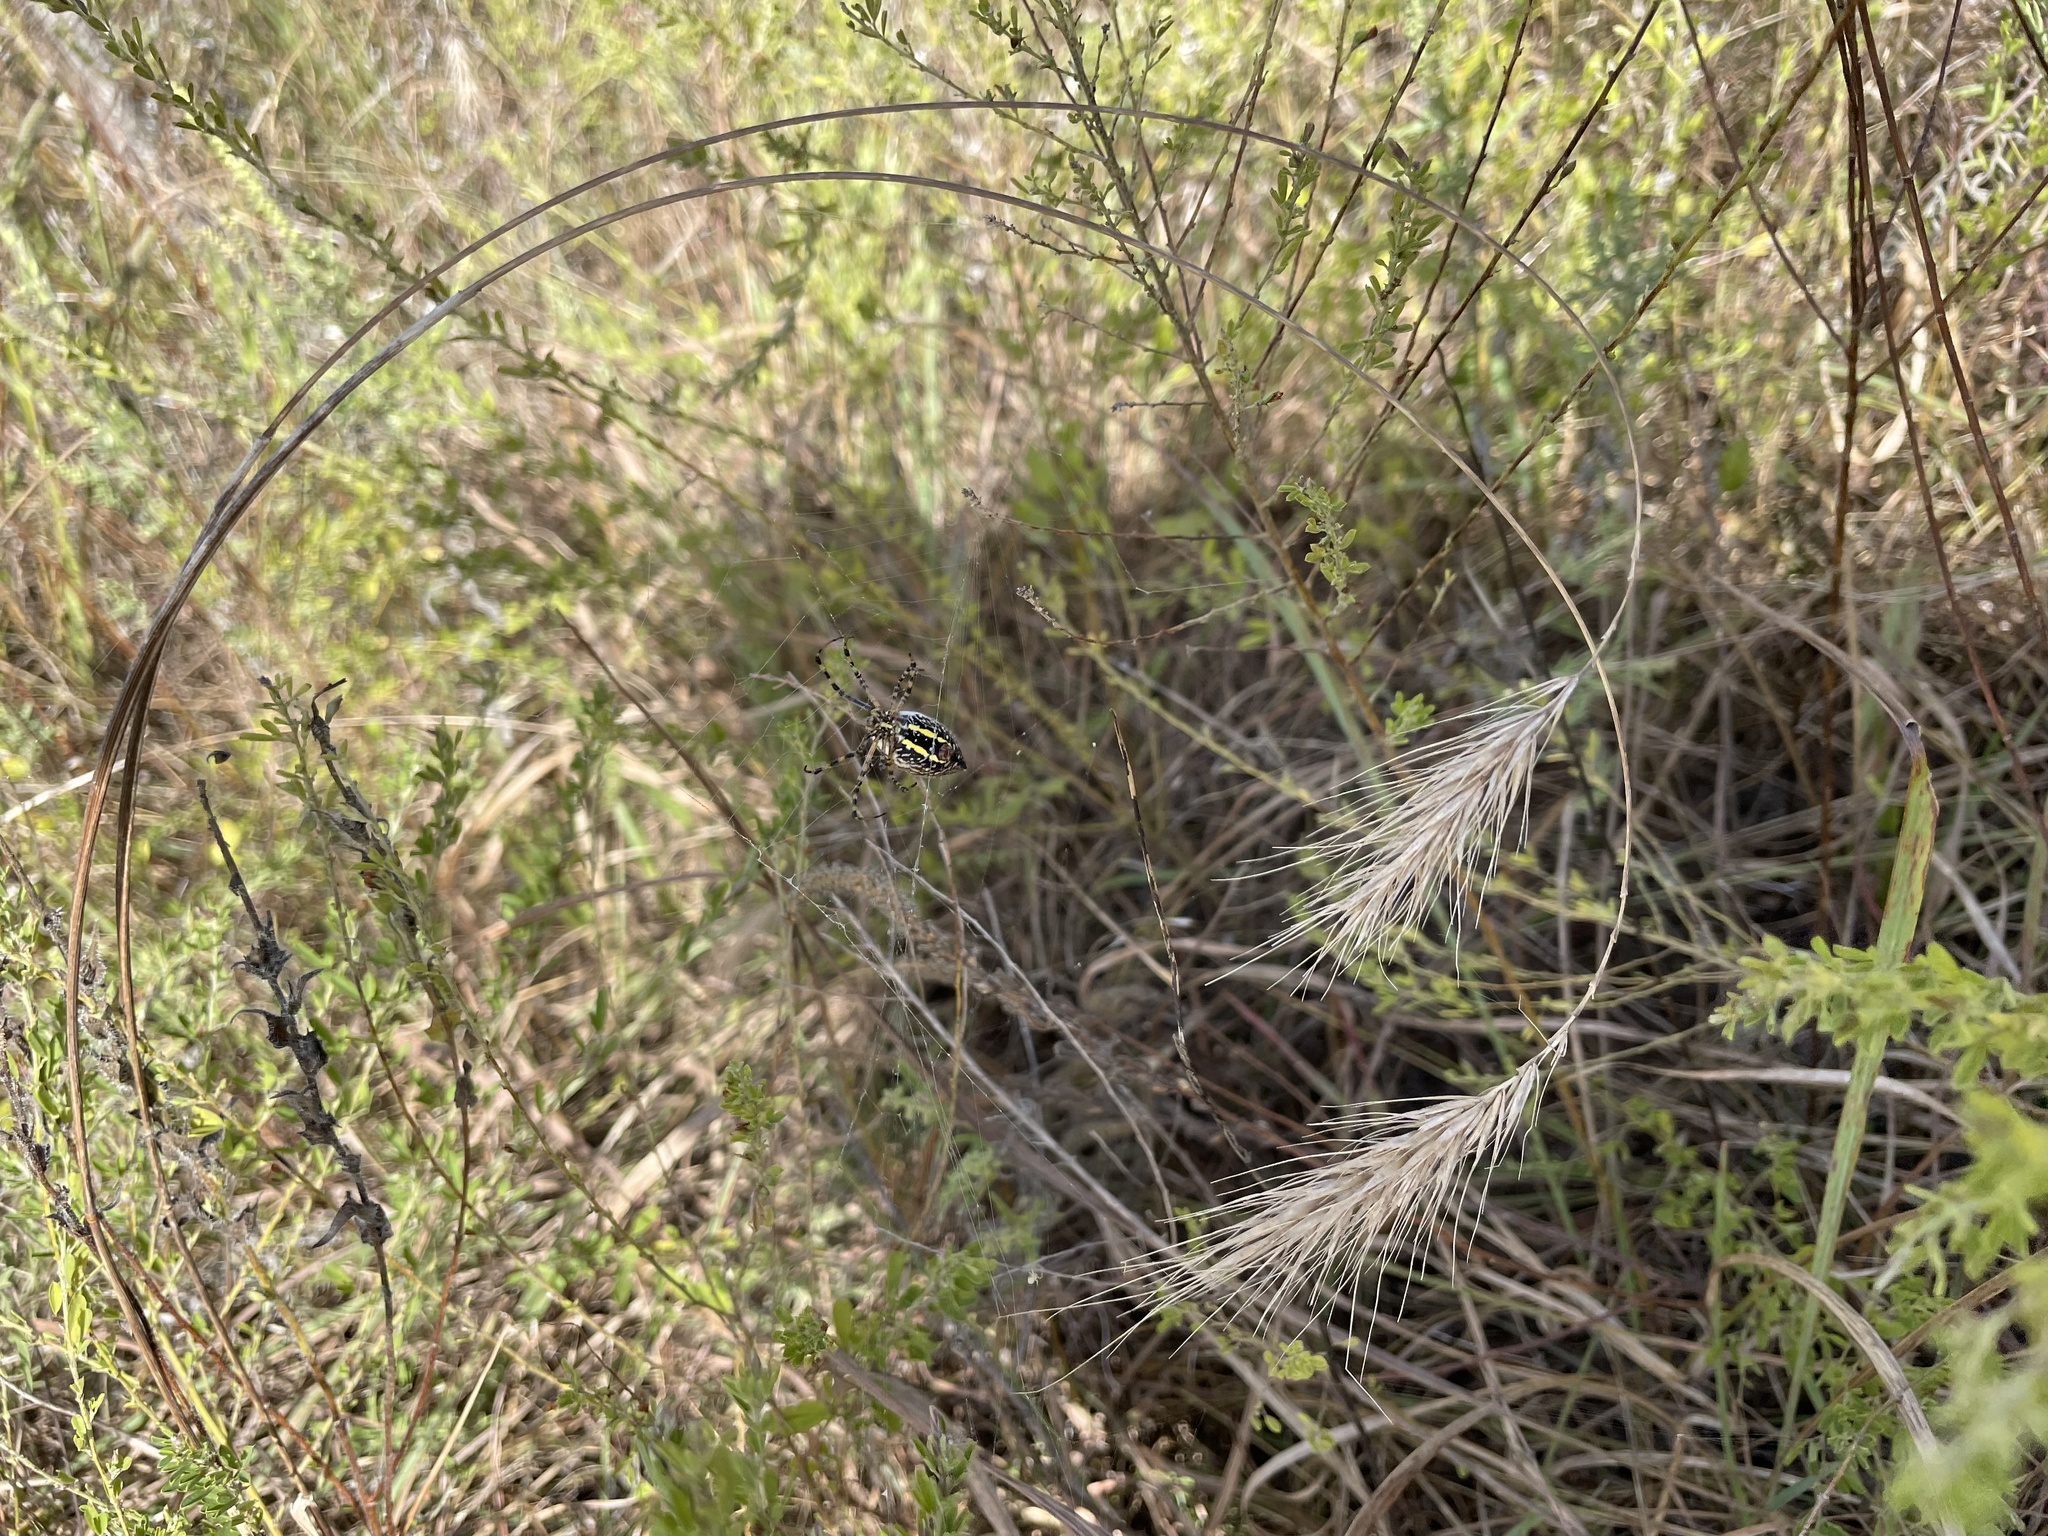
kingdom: Animalia
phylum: Arthropoda
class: Arachnida
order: Araneae
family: Araneidae
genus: Argiope
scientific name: Argiope trifasciata
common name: Banded garden spider
